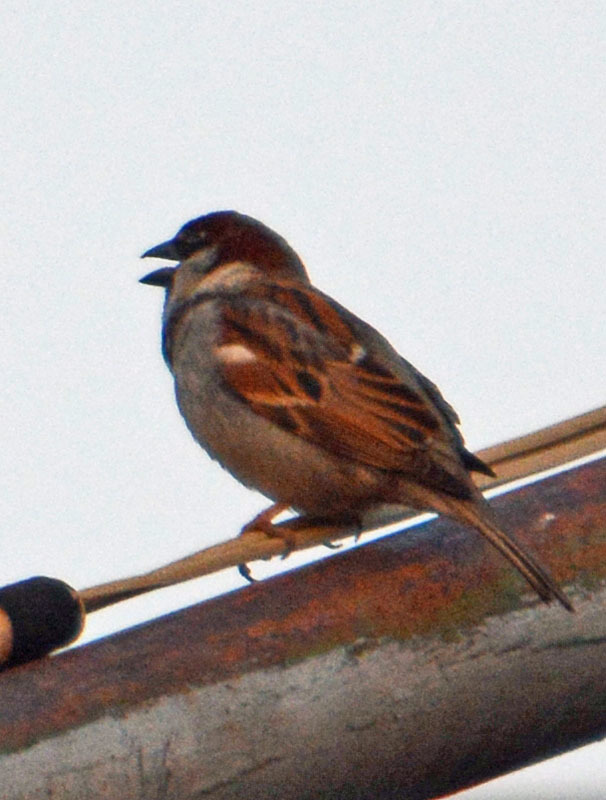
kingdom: Animalia
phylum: Chordata
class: Aves
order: Passeriformes
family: Passeridae
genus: Passer
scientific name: Passer domesticus
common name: House sparrow
